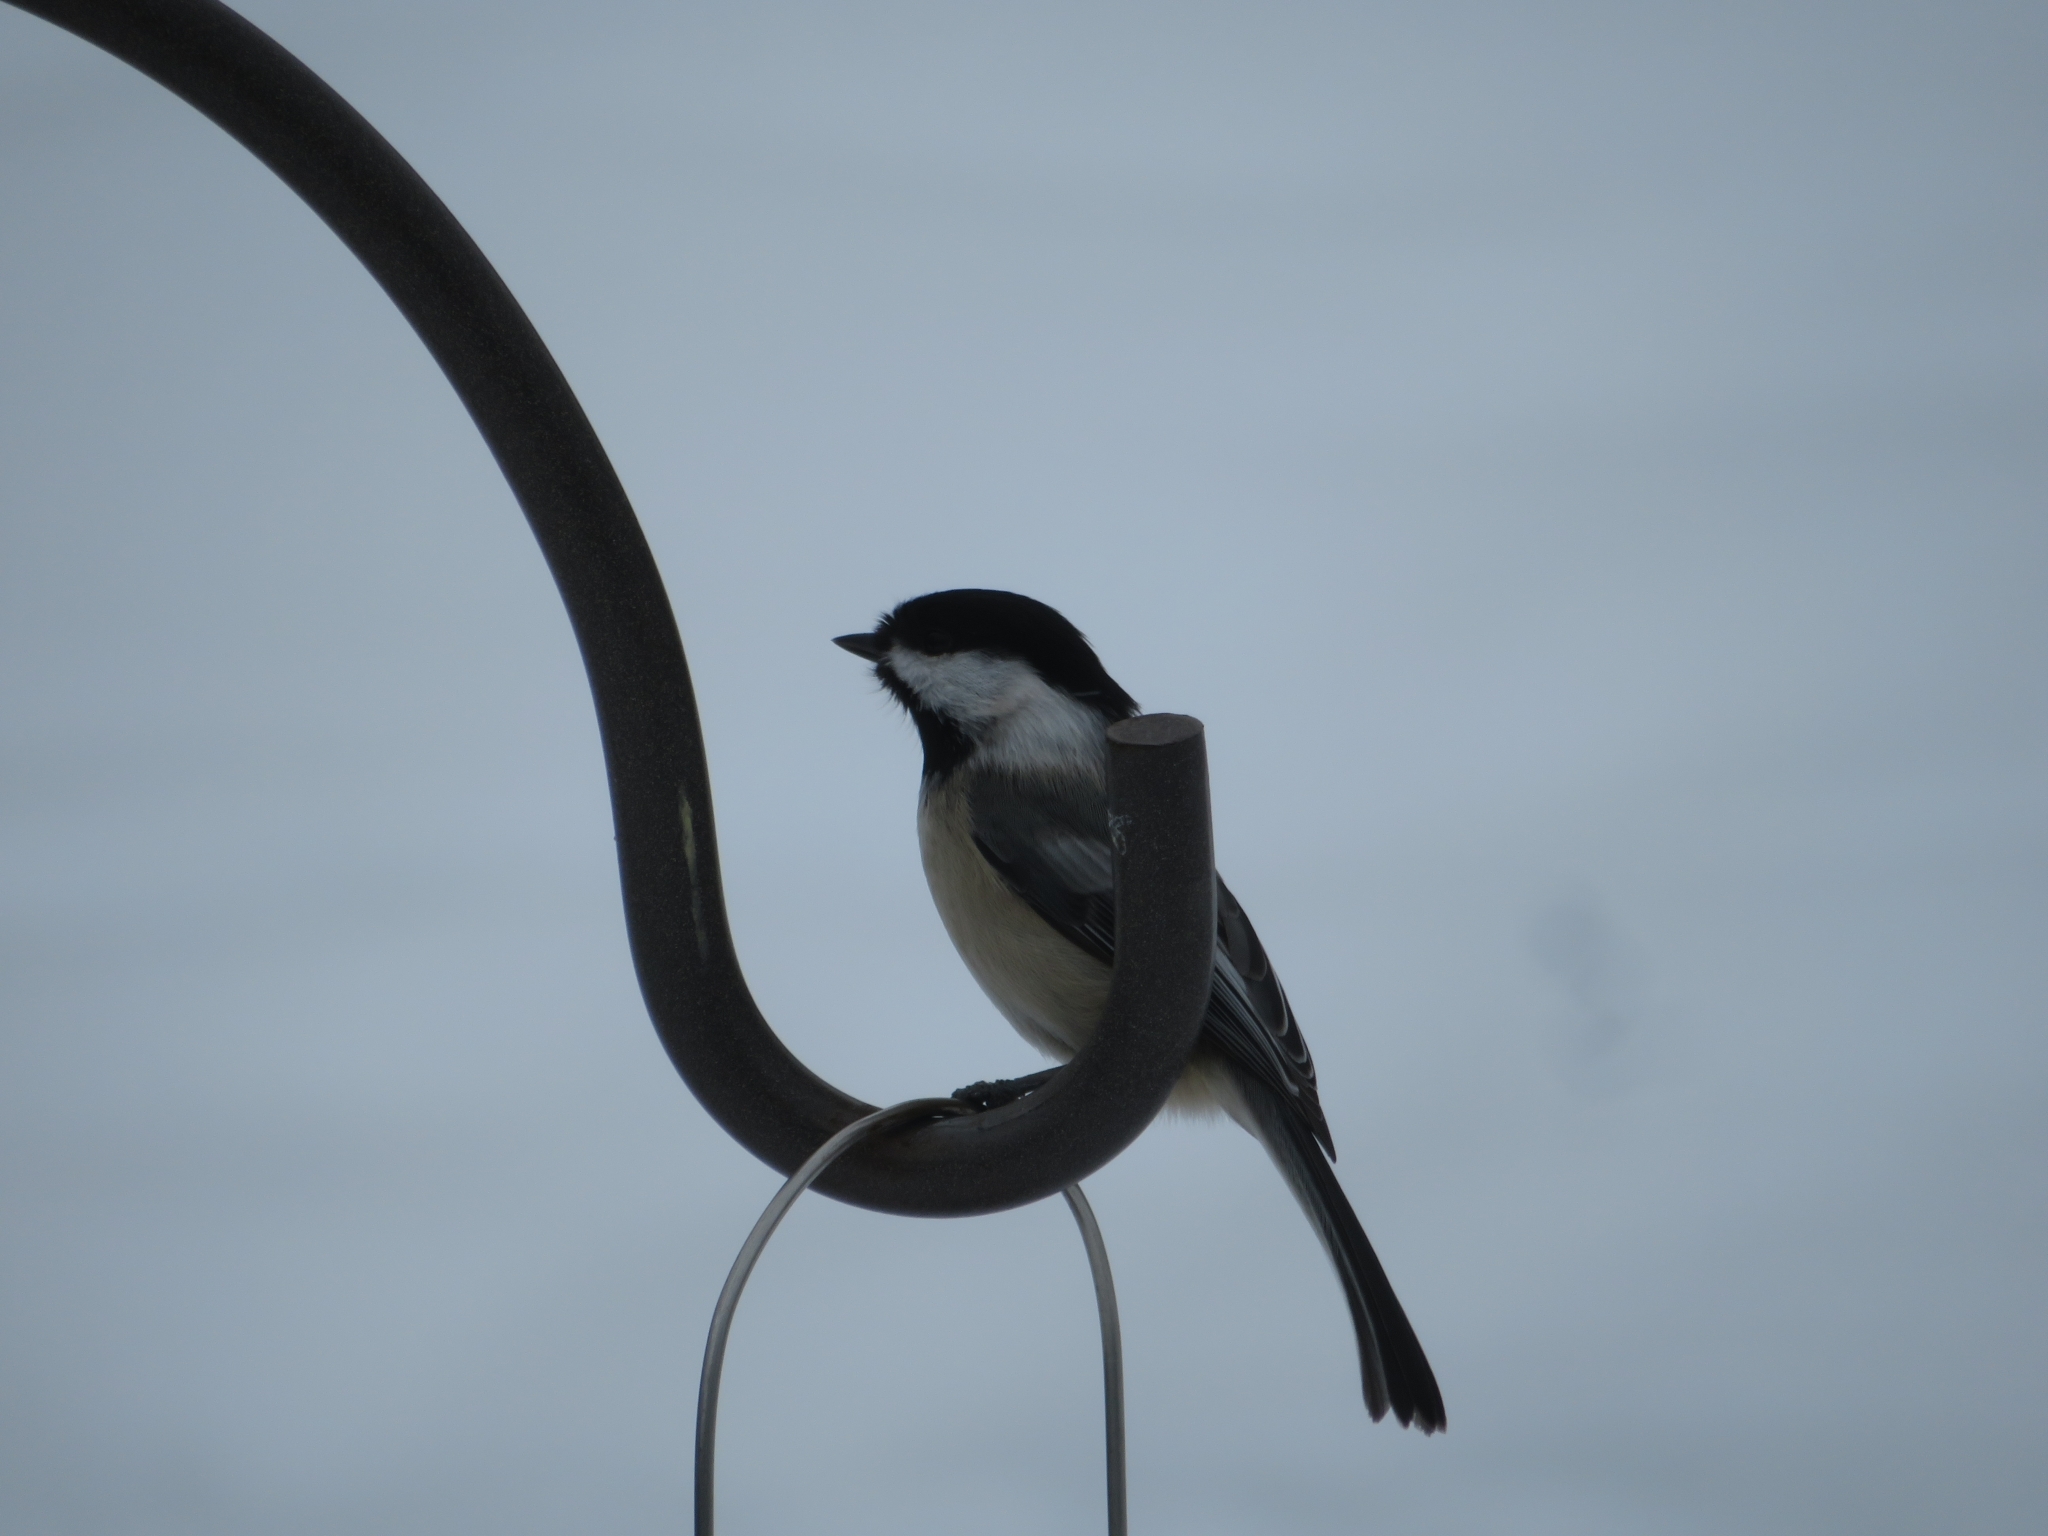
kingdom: Animalia
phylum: Chordata
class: Aves
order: Passeriformes
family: Paridae
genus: Poecile
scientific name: Poecile atricapillus
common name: Black-capped chickadee
